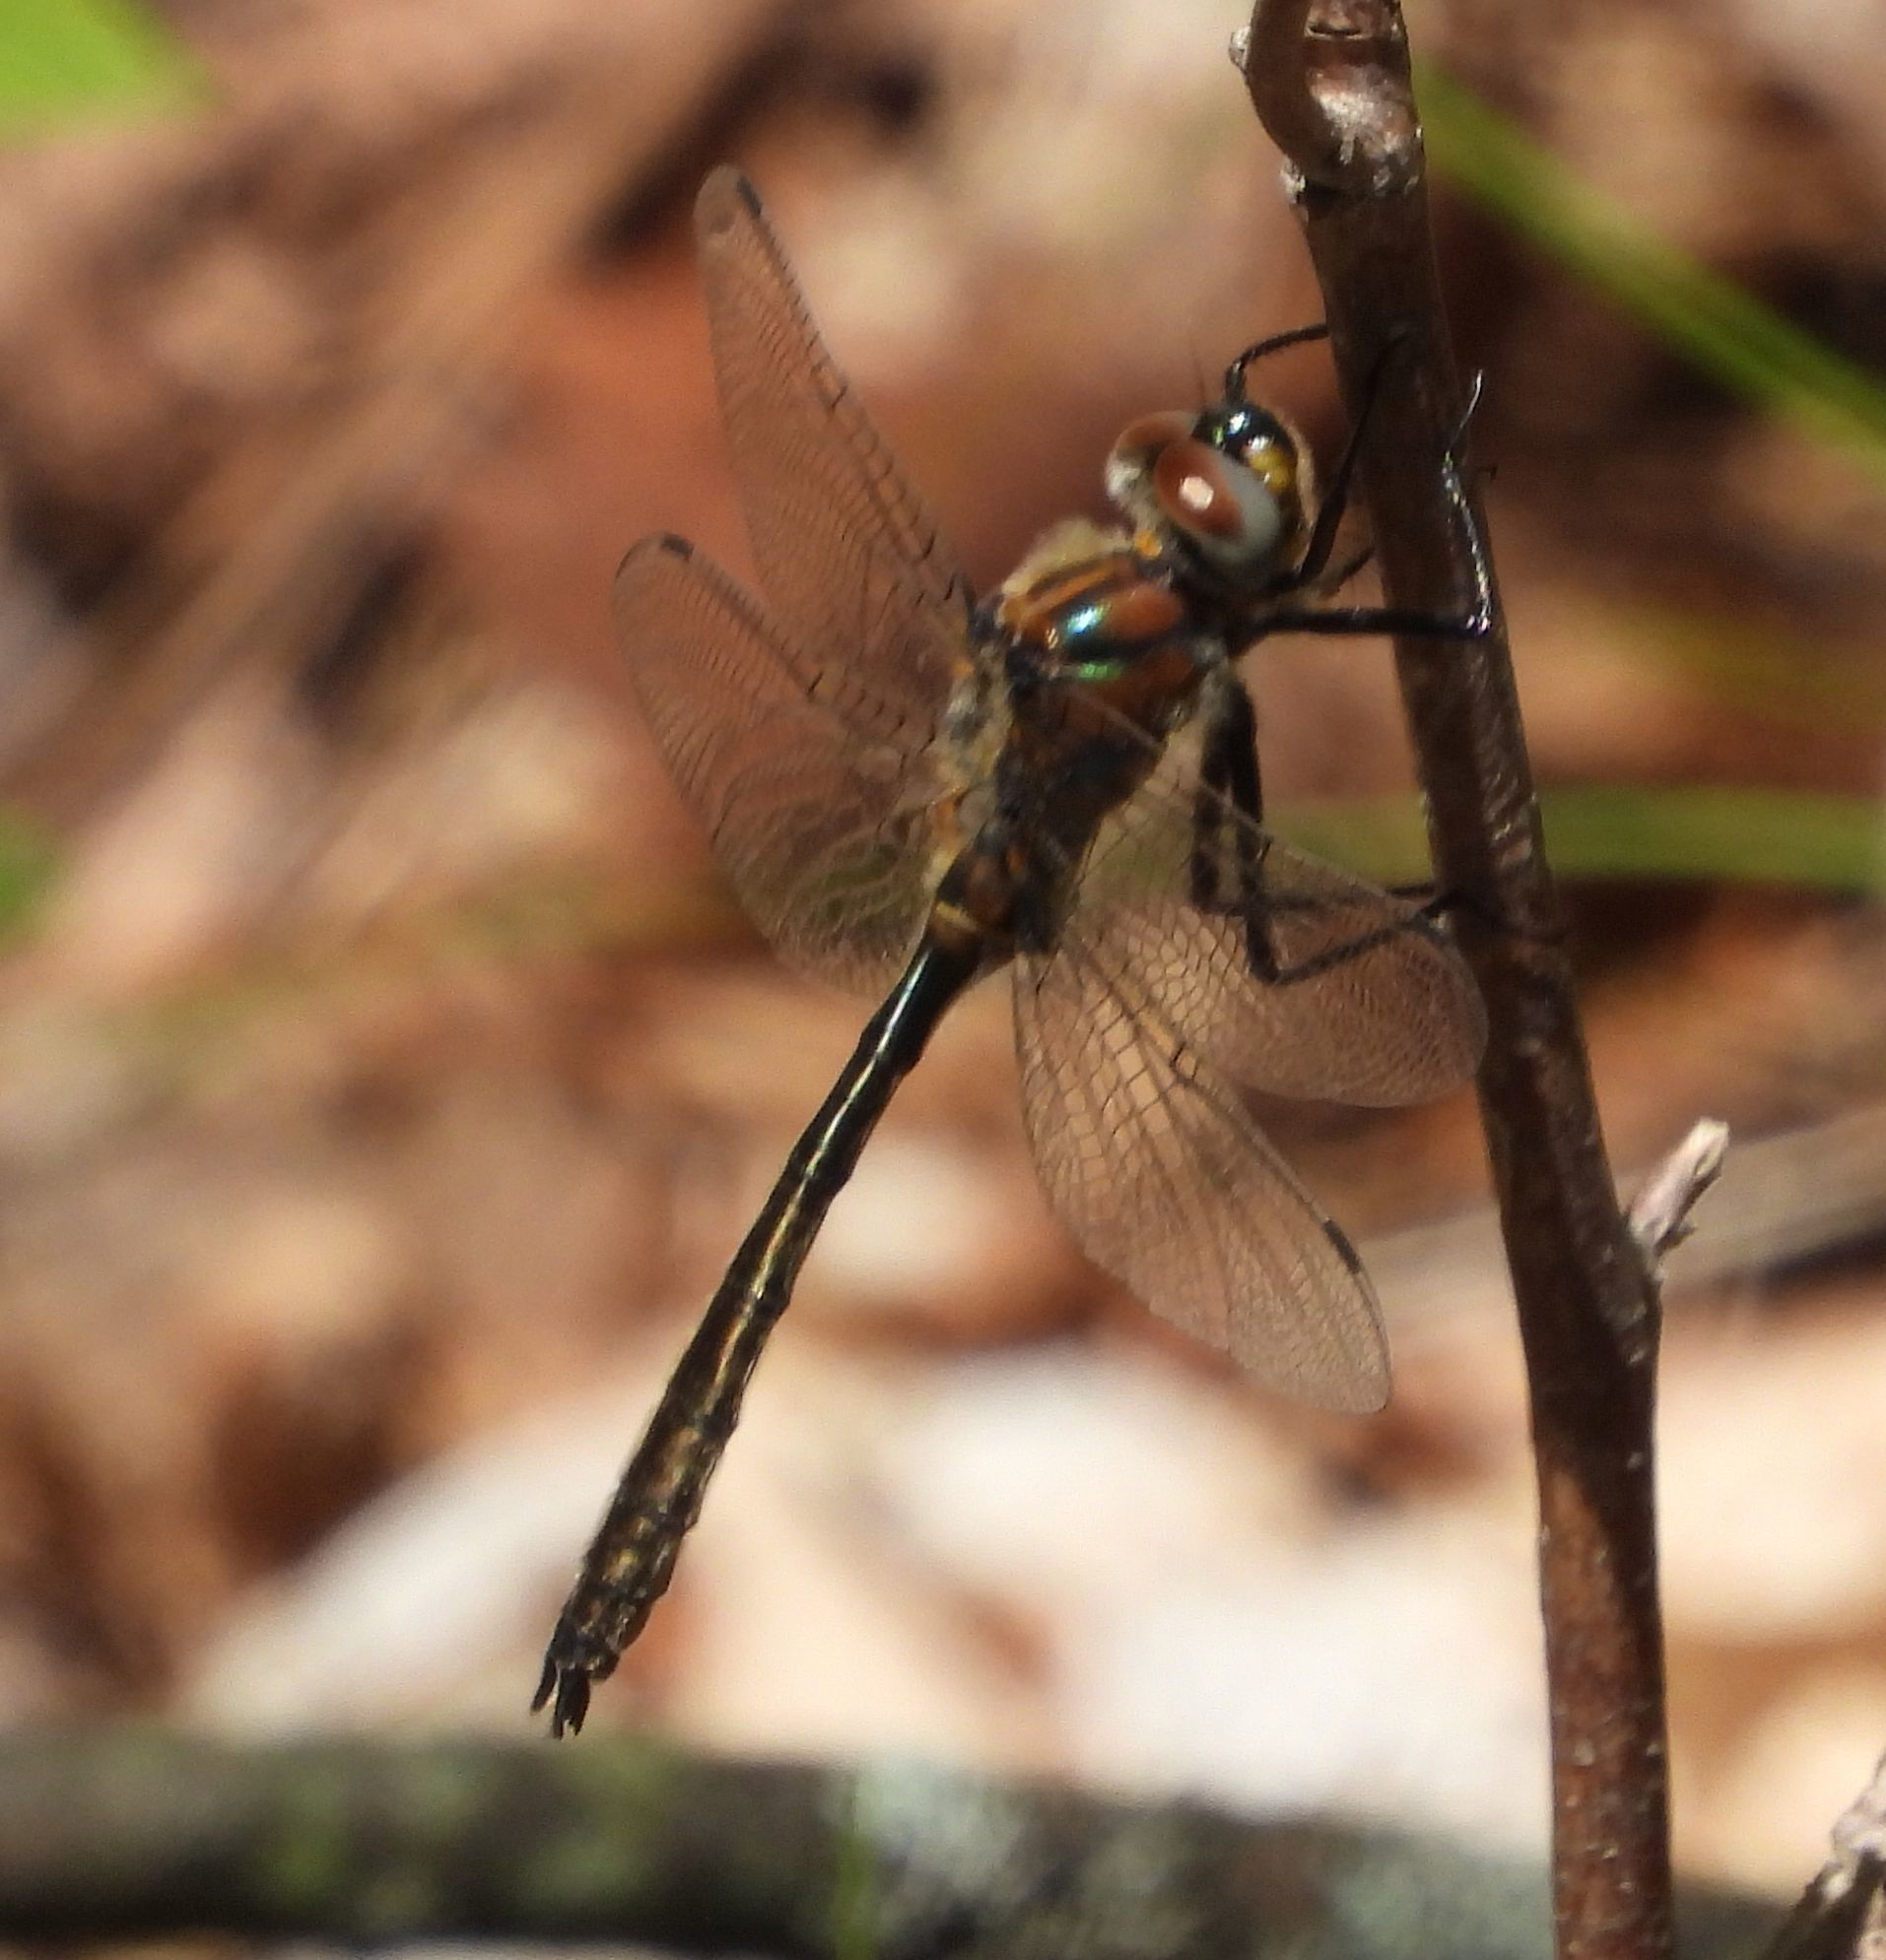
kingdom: Animalia
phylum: Arthropoda
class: Insecta
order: Odonata
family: Corduliidae
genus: Cordulia
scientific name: Cordulia shurtleffii
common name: American emerald
